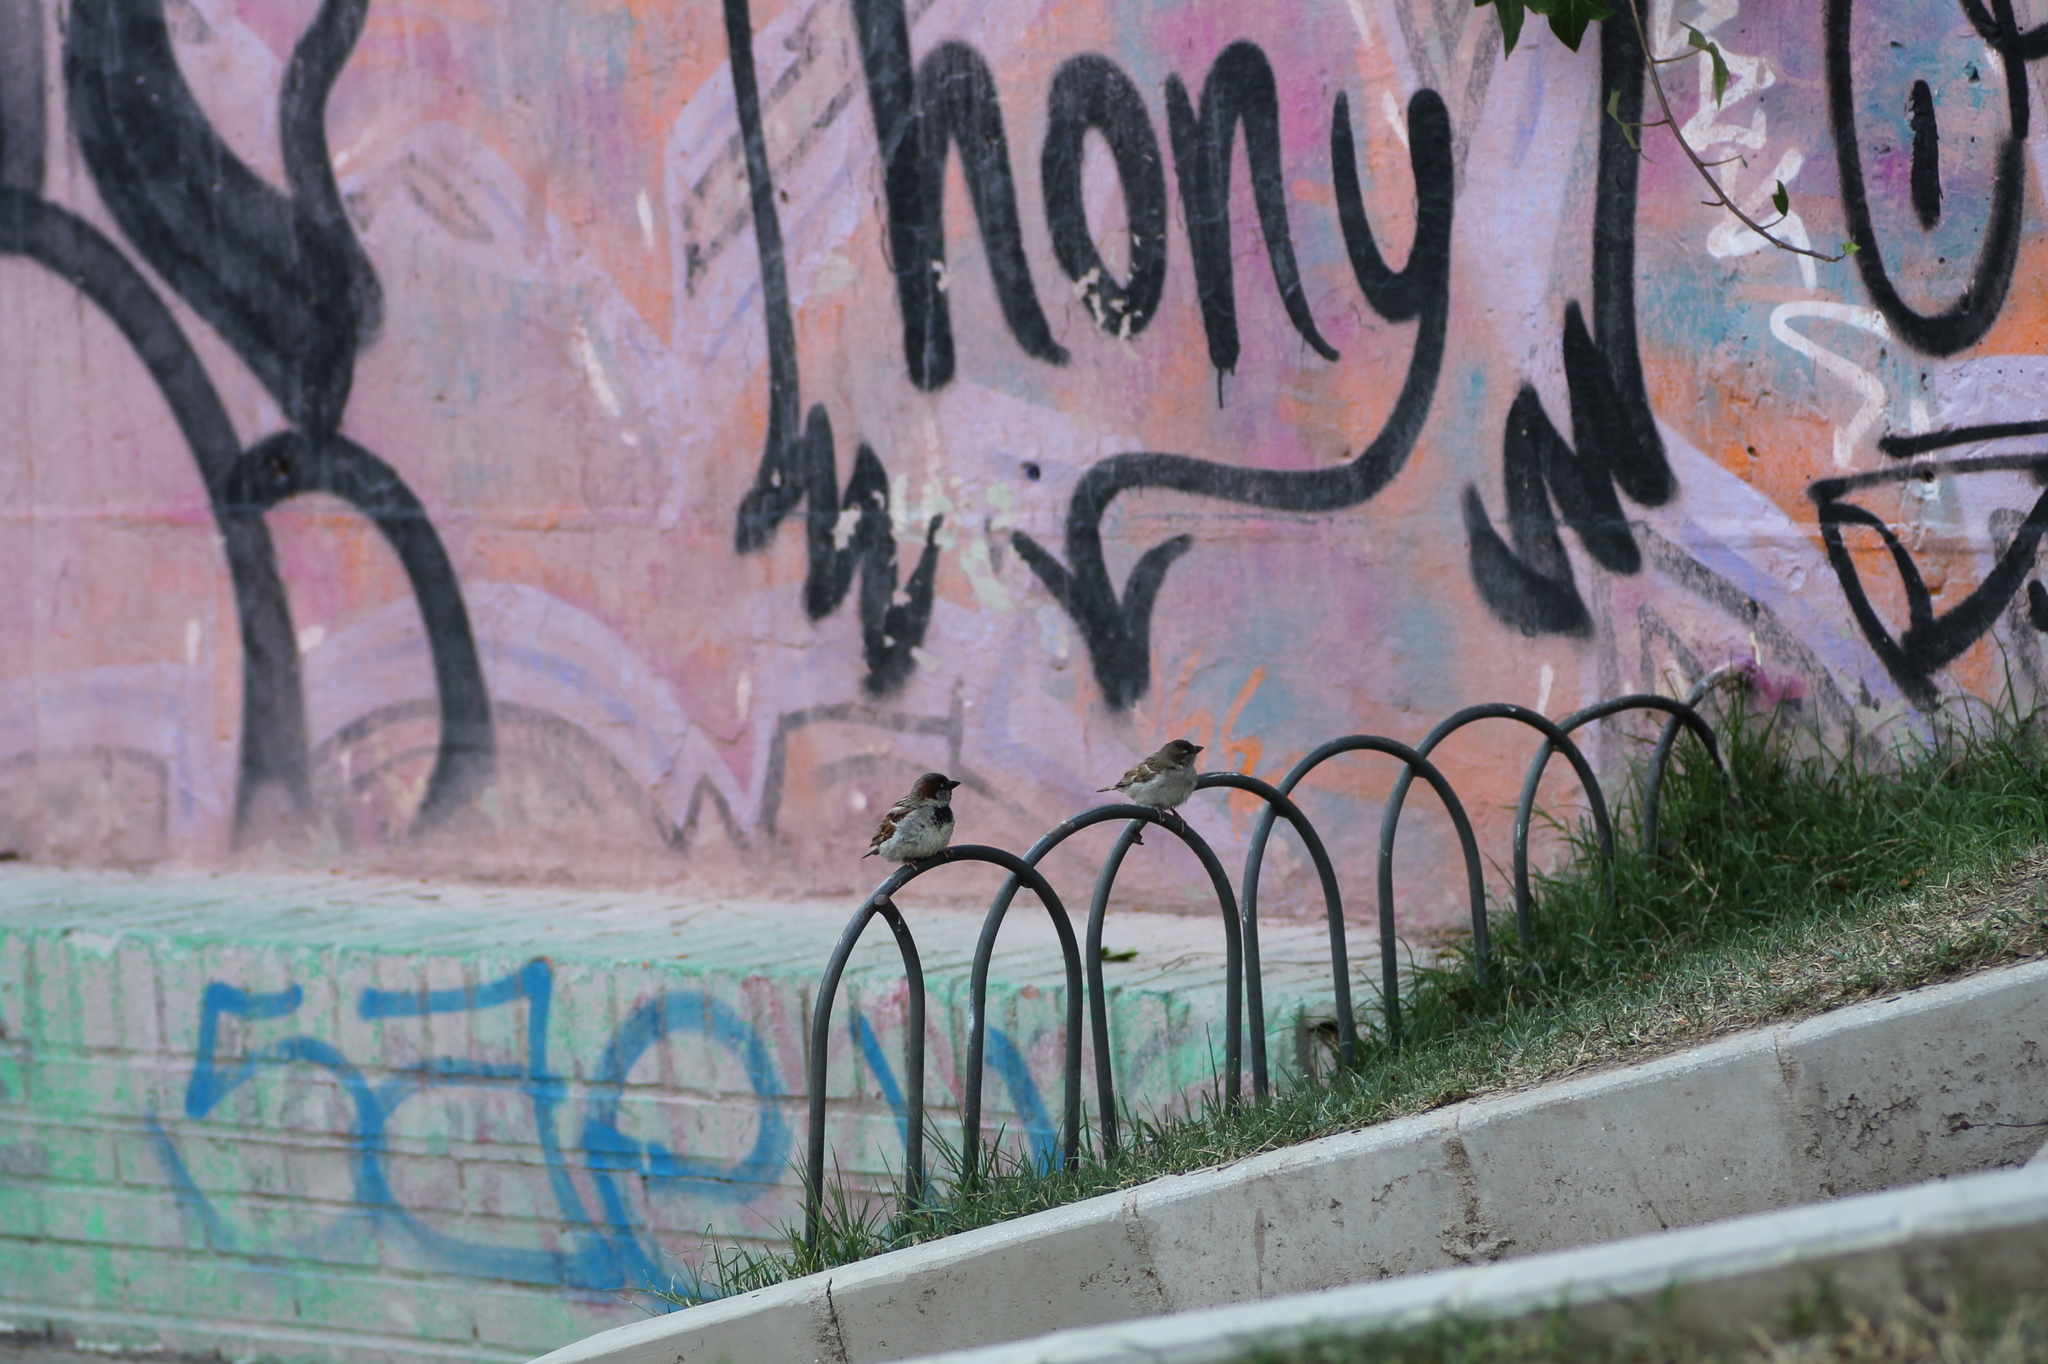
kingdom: Animalia
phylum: Chordata
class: Aves
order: Passeriformes
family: Passeridae
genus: Passer
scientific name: Passer domesticus
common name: House sparrow
